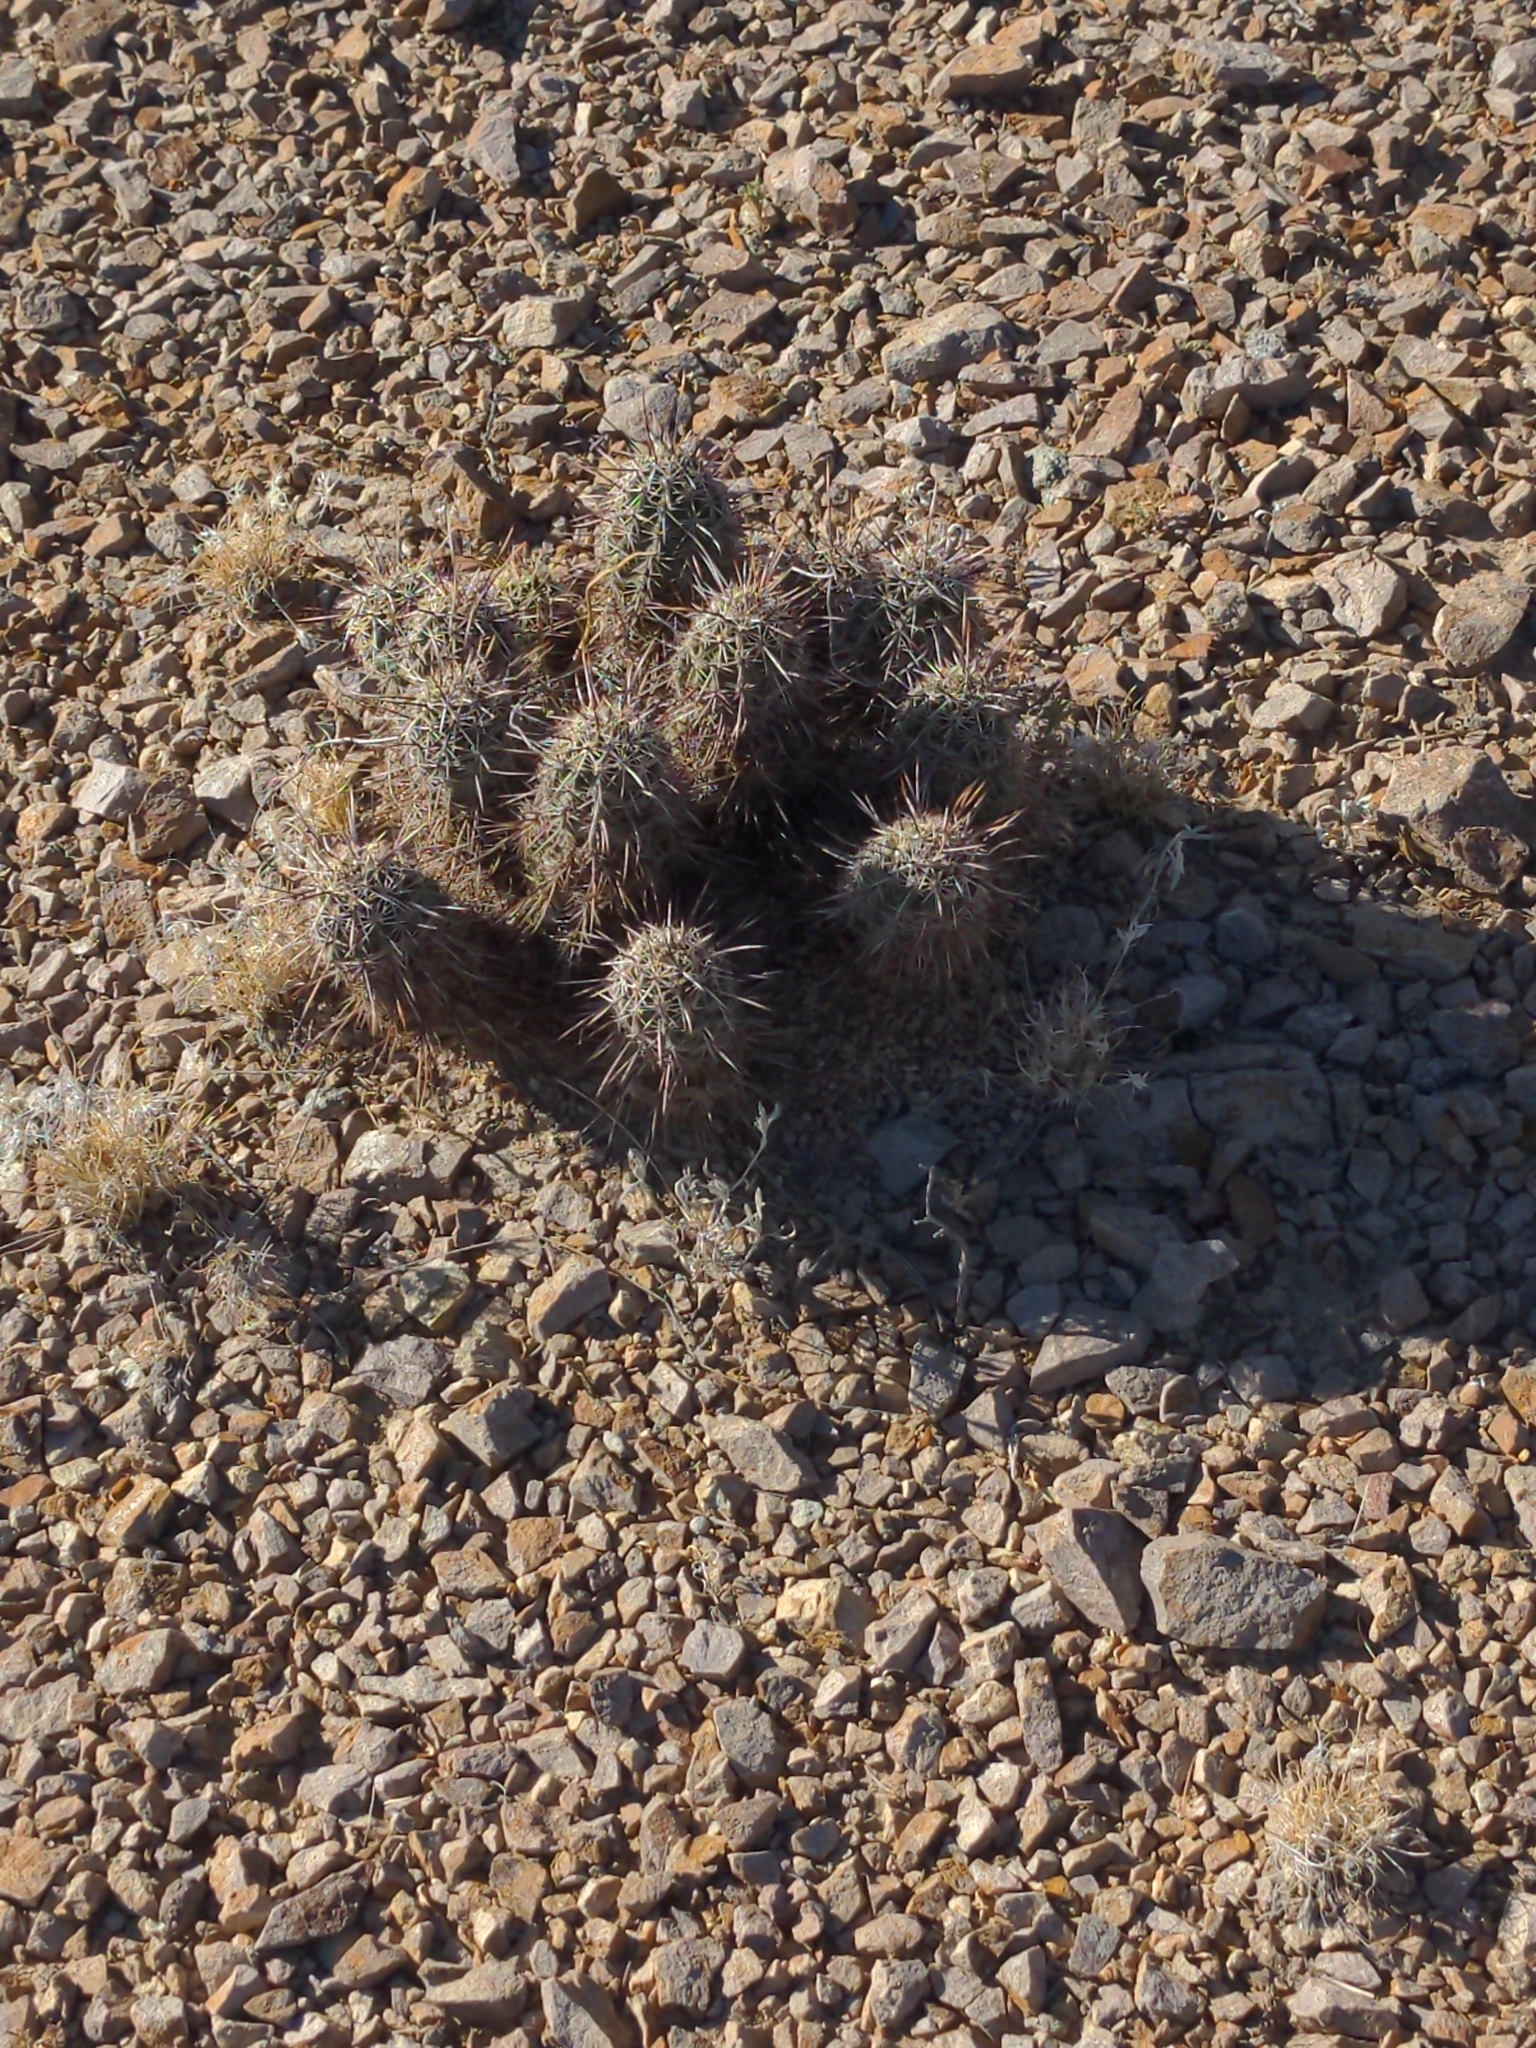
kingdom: Plantae
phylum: Tracheophyta
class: Magnoliopsida
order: Caryophyllales
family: Cactaceae
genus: Echinocereus
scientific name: Echinocereus fasciculatus
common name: Bundle hedgehog
